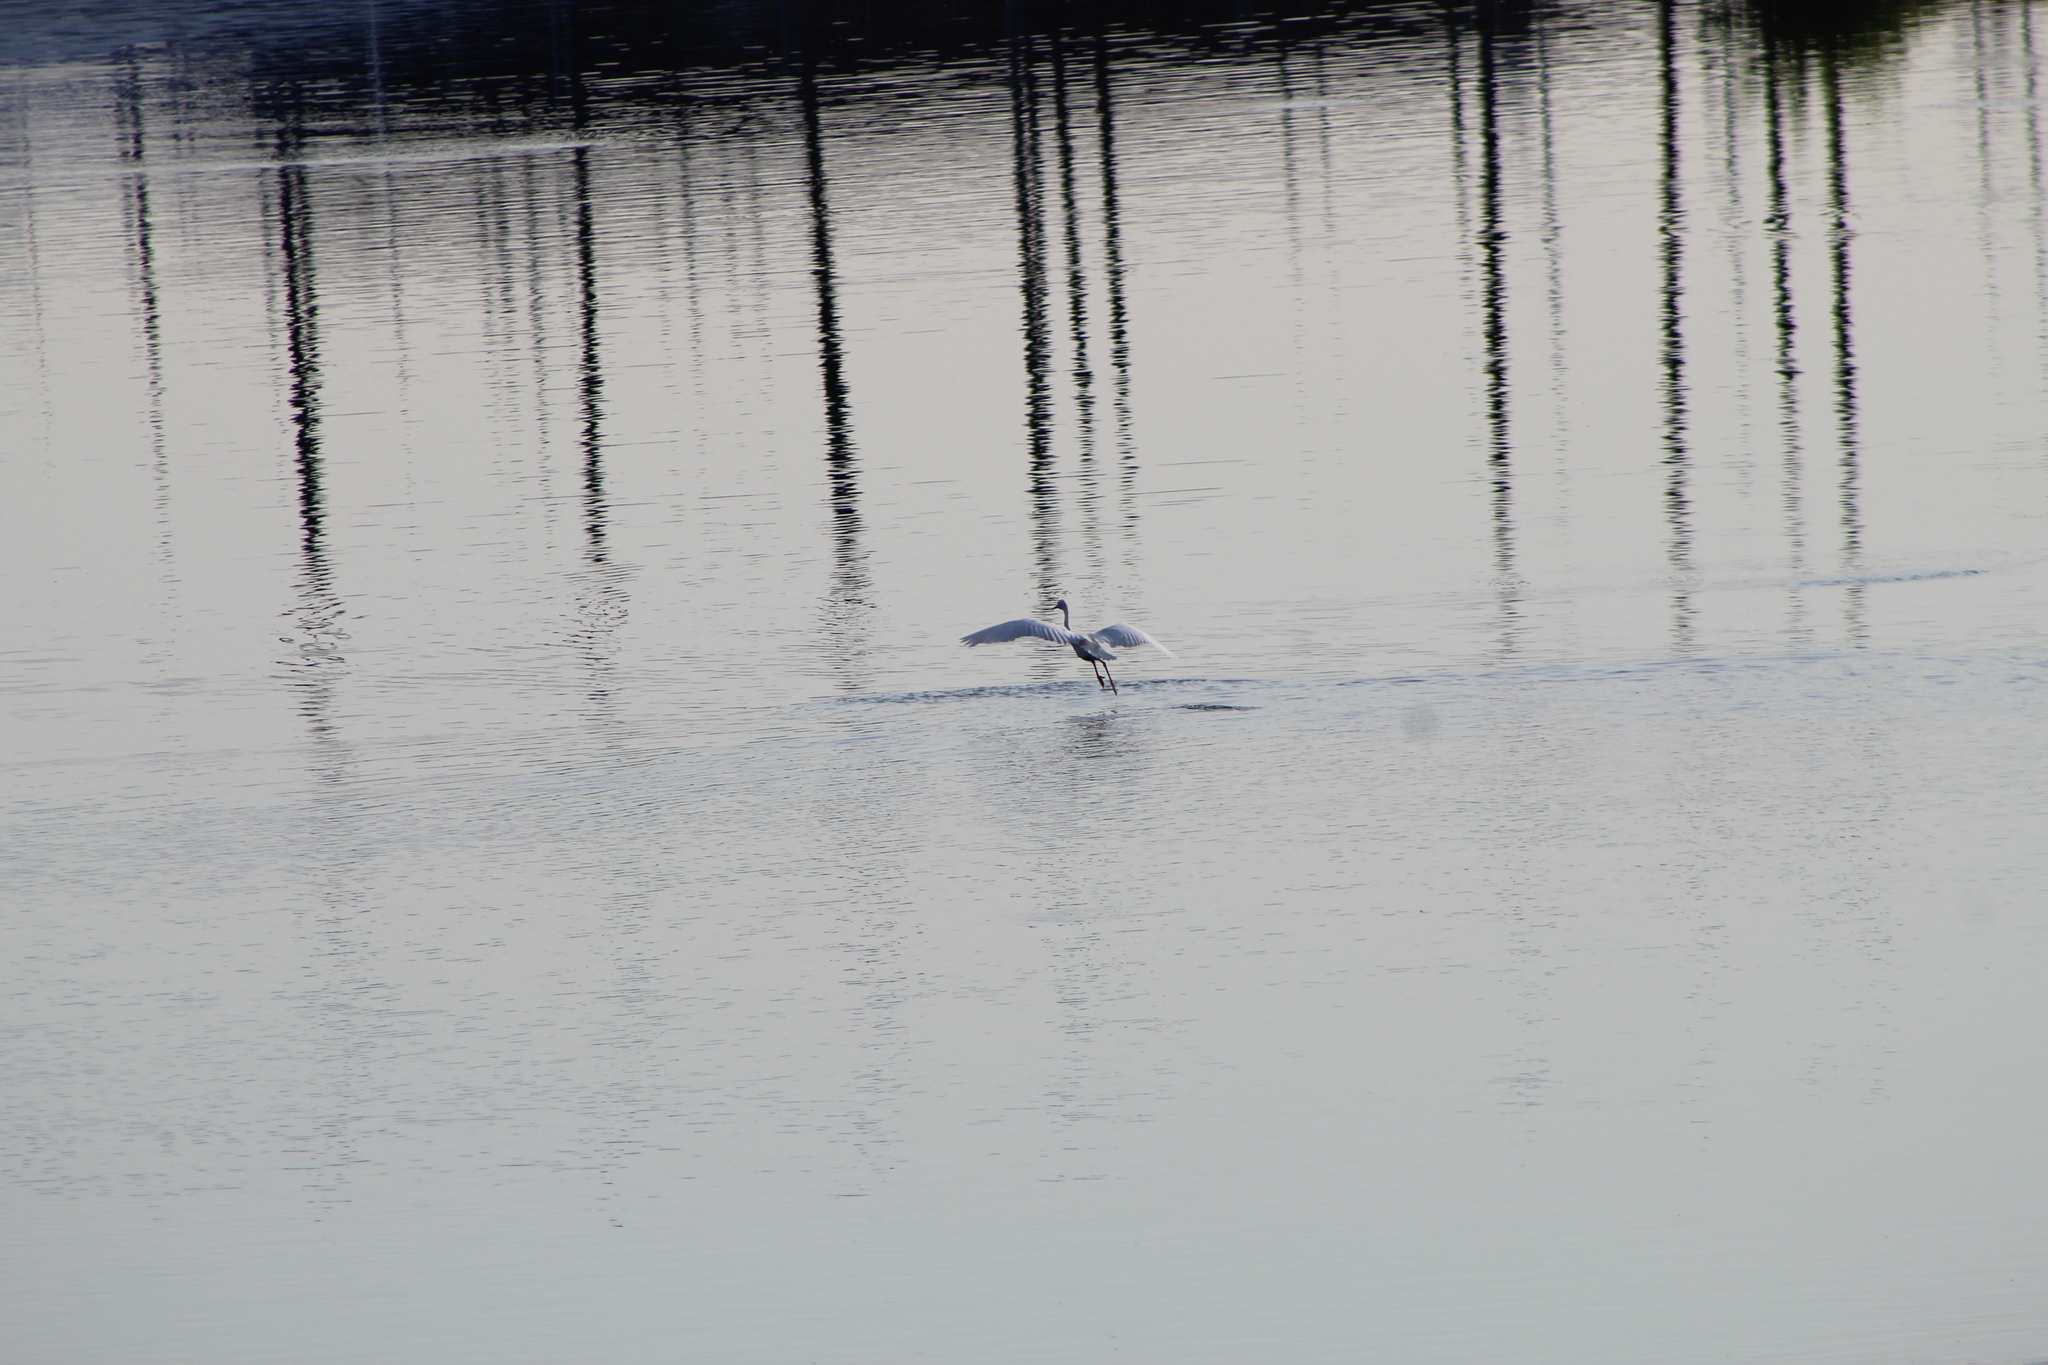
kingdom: Animalia
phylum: Chordata
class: Aves
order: Pelecaniformes
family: Ardeidae
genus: Ardea
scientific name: Ardea alba
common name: Great egret
